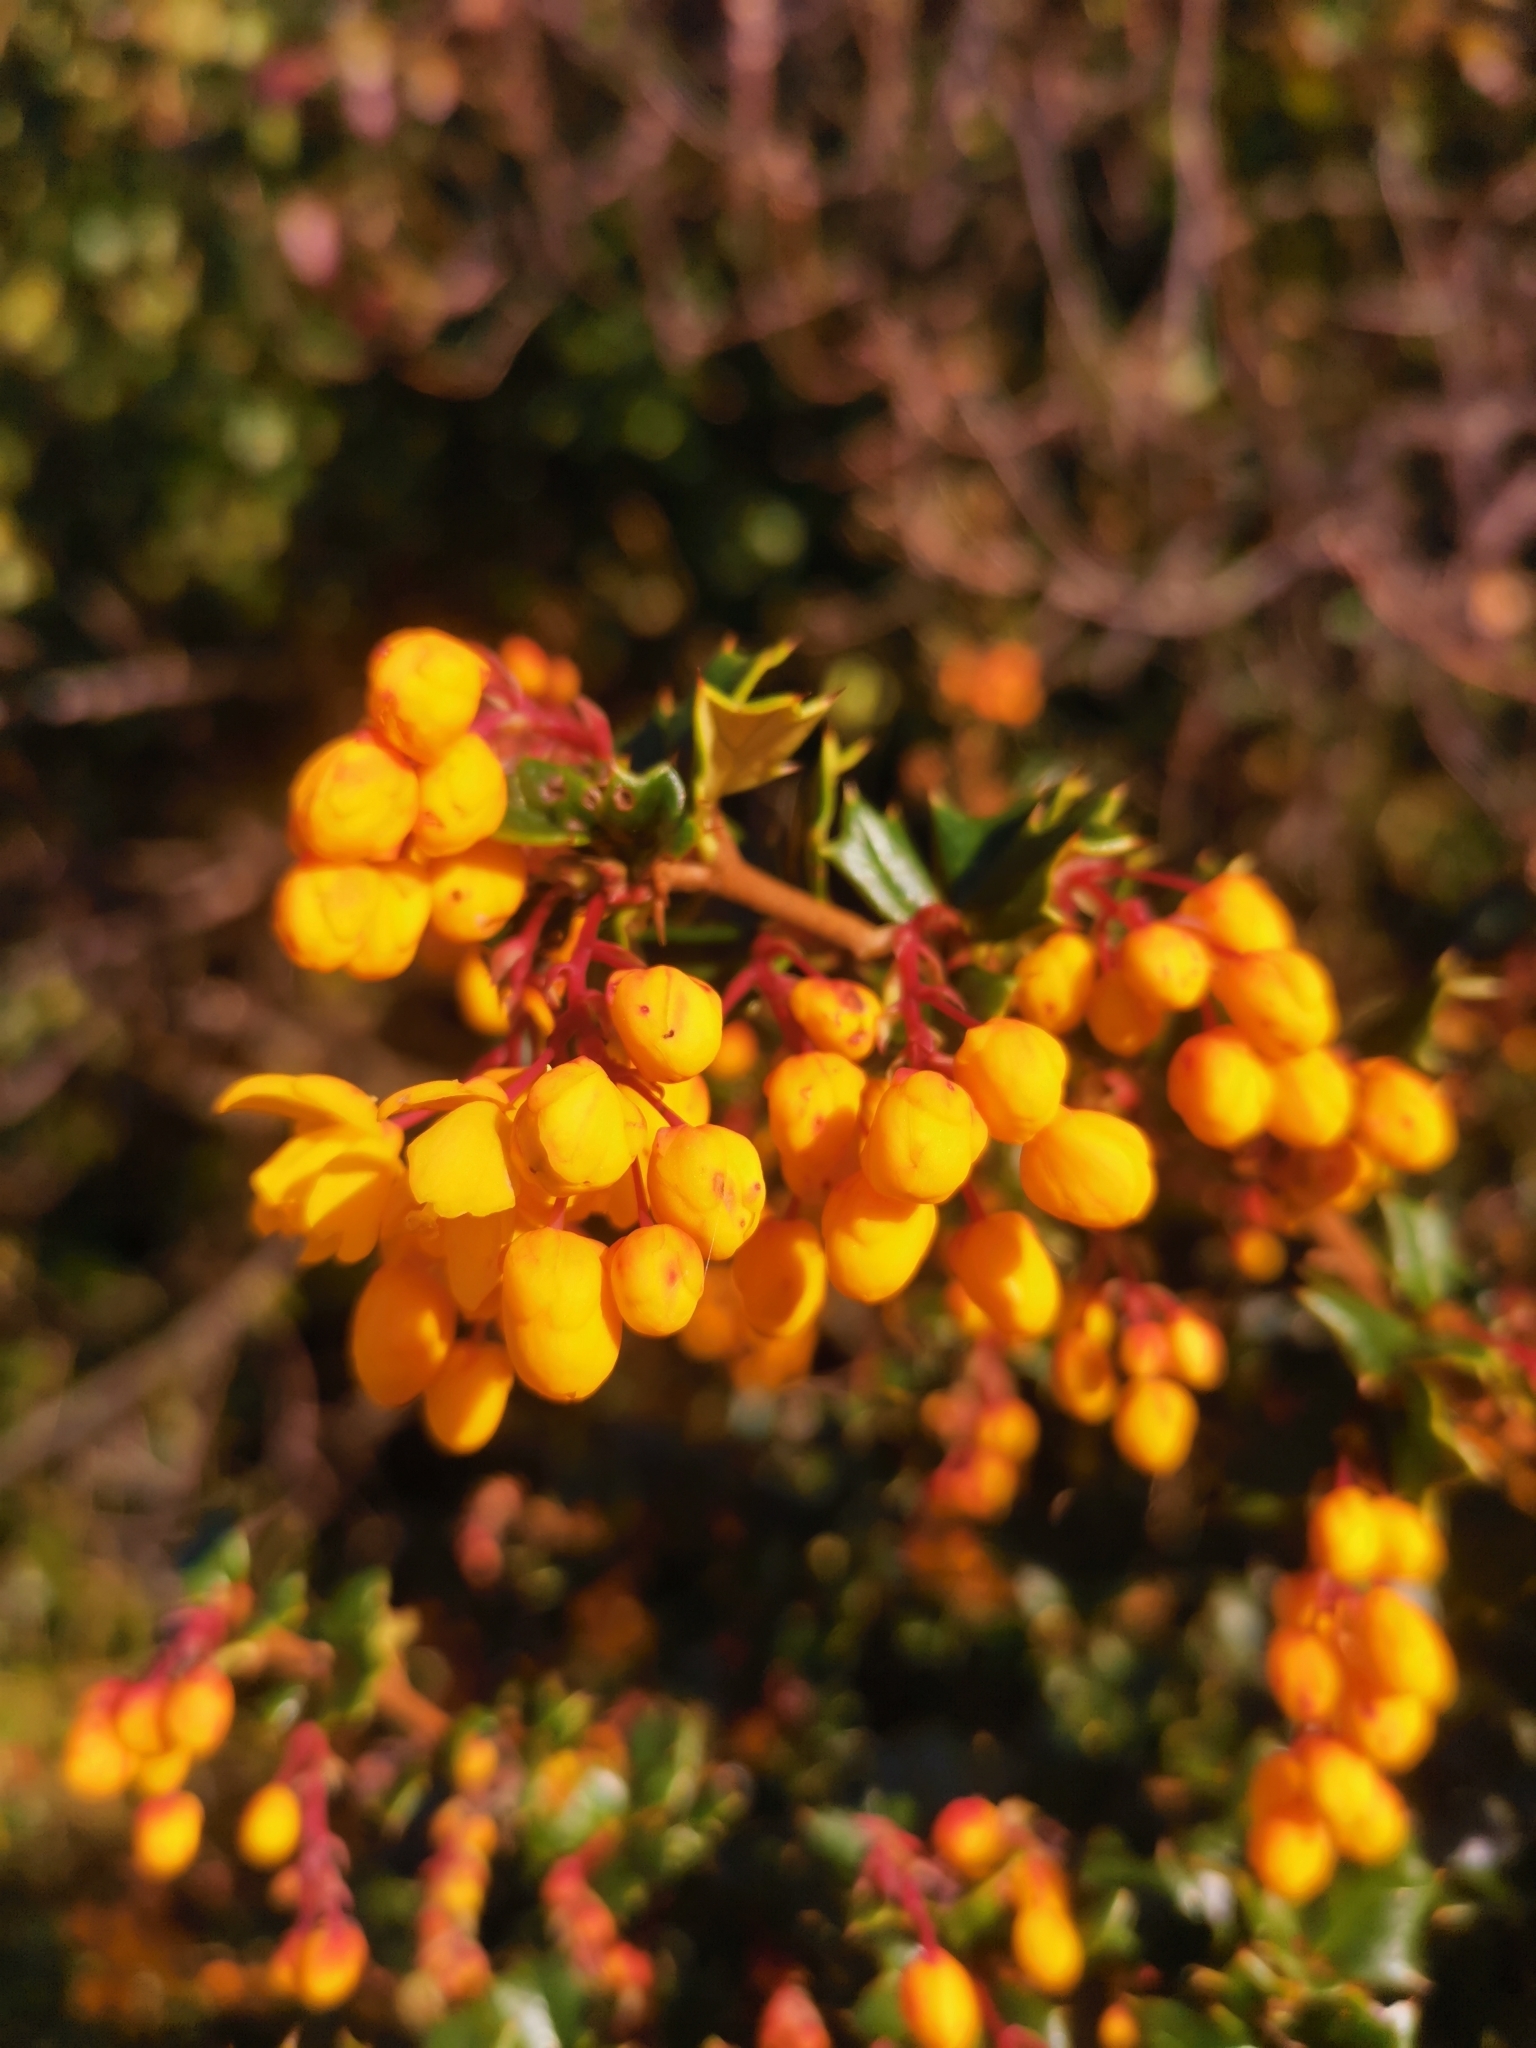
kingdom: Plantae
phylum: Tracheophyta
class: Magnoliopsida
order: Ranunculales
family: Berberidaceae
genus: Berberis
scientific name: Berberis darwinii
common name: Darwin's barberry
